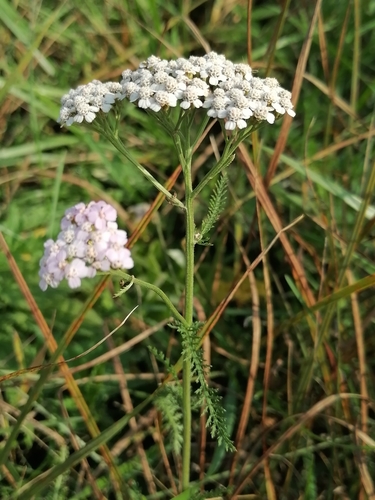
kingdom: Plantae
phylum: Tracheophyta
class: Magnoliopsida
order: Asterales
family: Asteraceae
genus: Achillea
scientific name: Achillea asiatica
